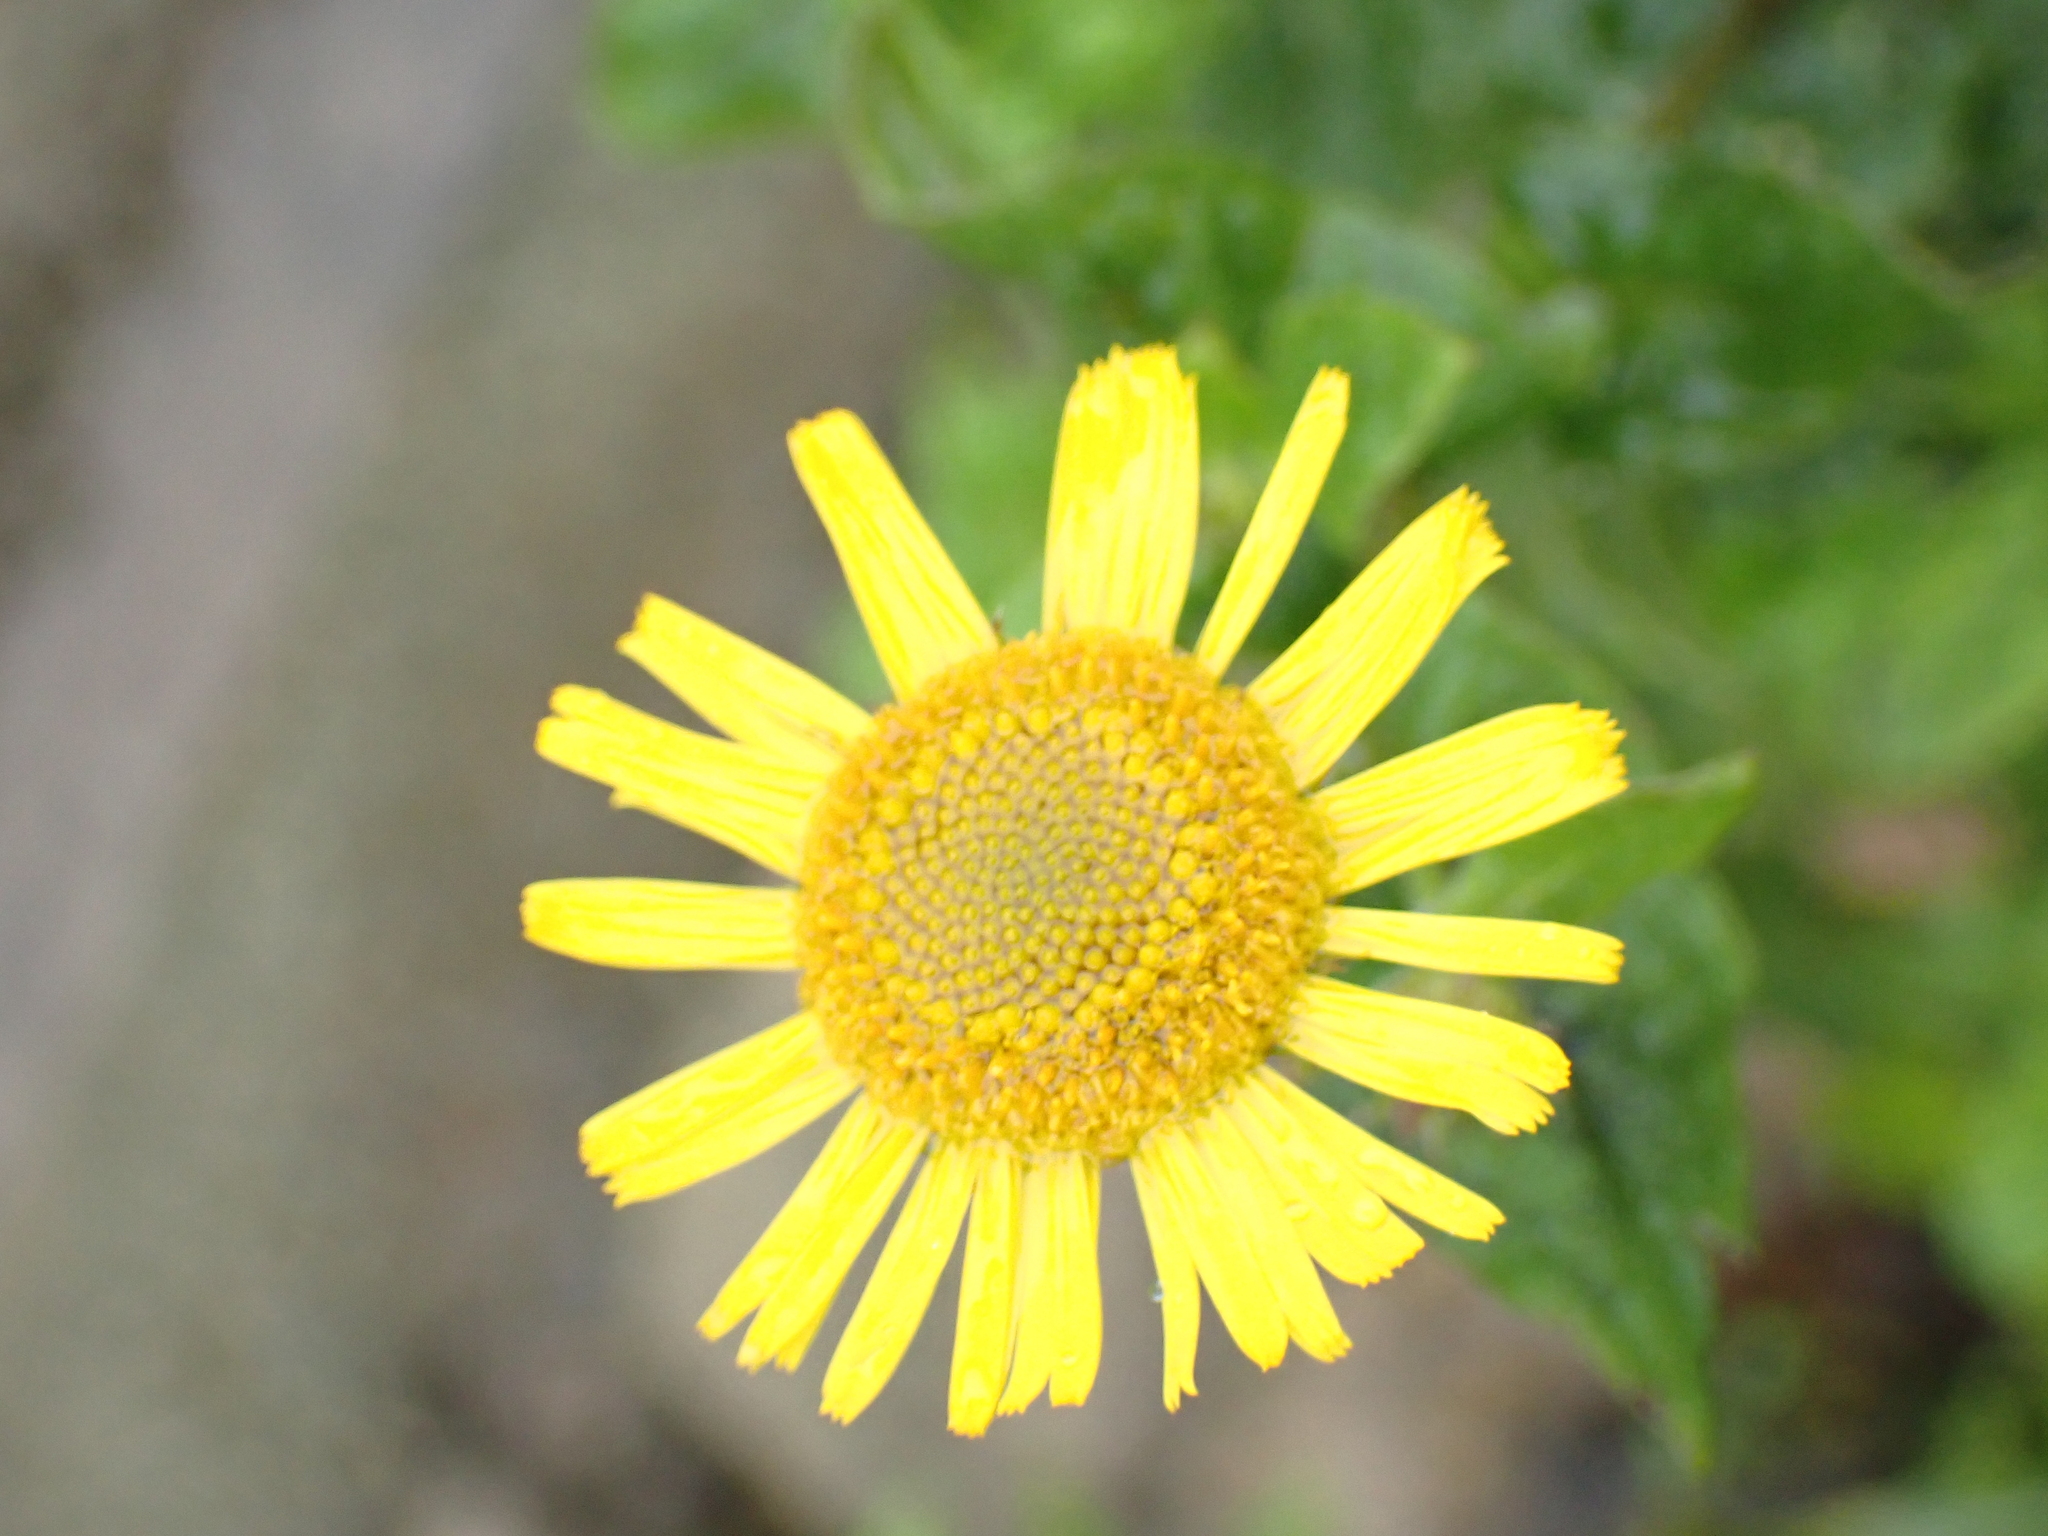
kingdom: Plantae
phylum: Tracheophyta
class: Magnoliopsida
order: Asterales
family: Asteraceae
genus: Pulicaria
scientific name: Pulicaria dysenterica
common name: Common fleabane
